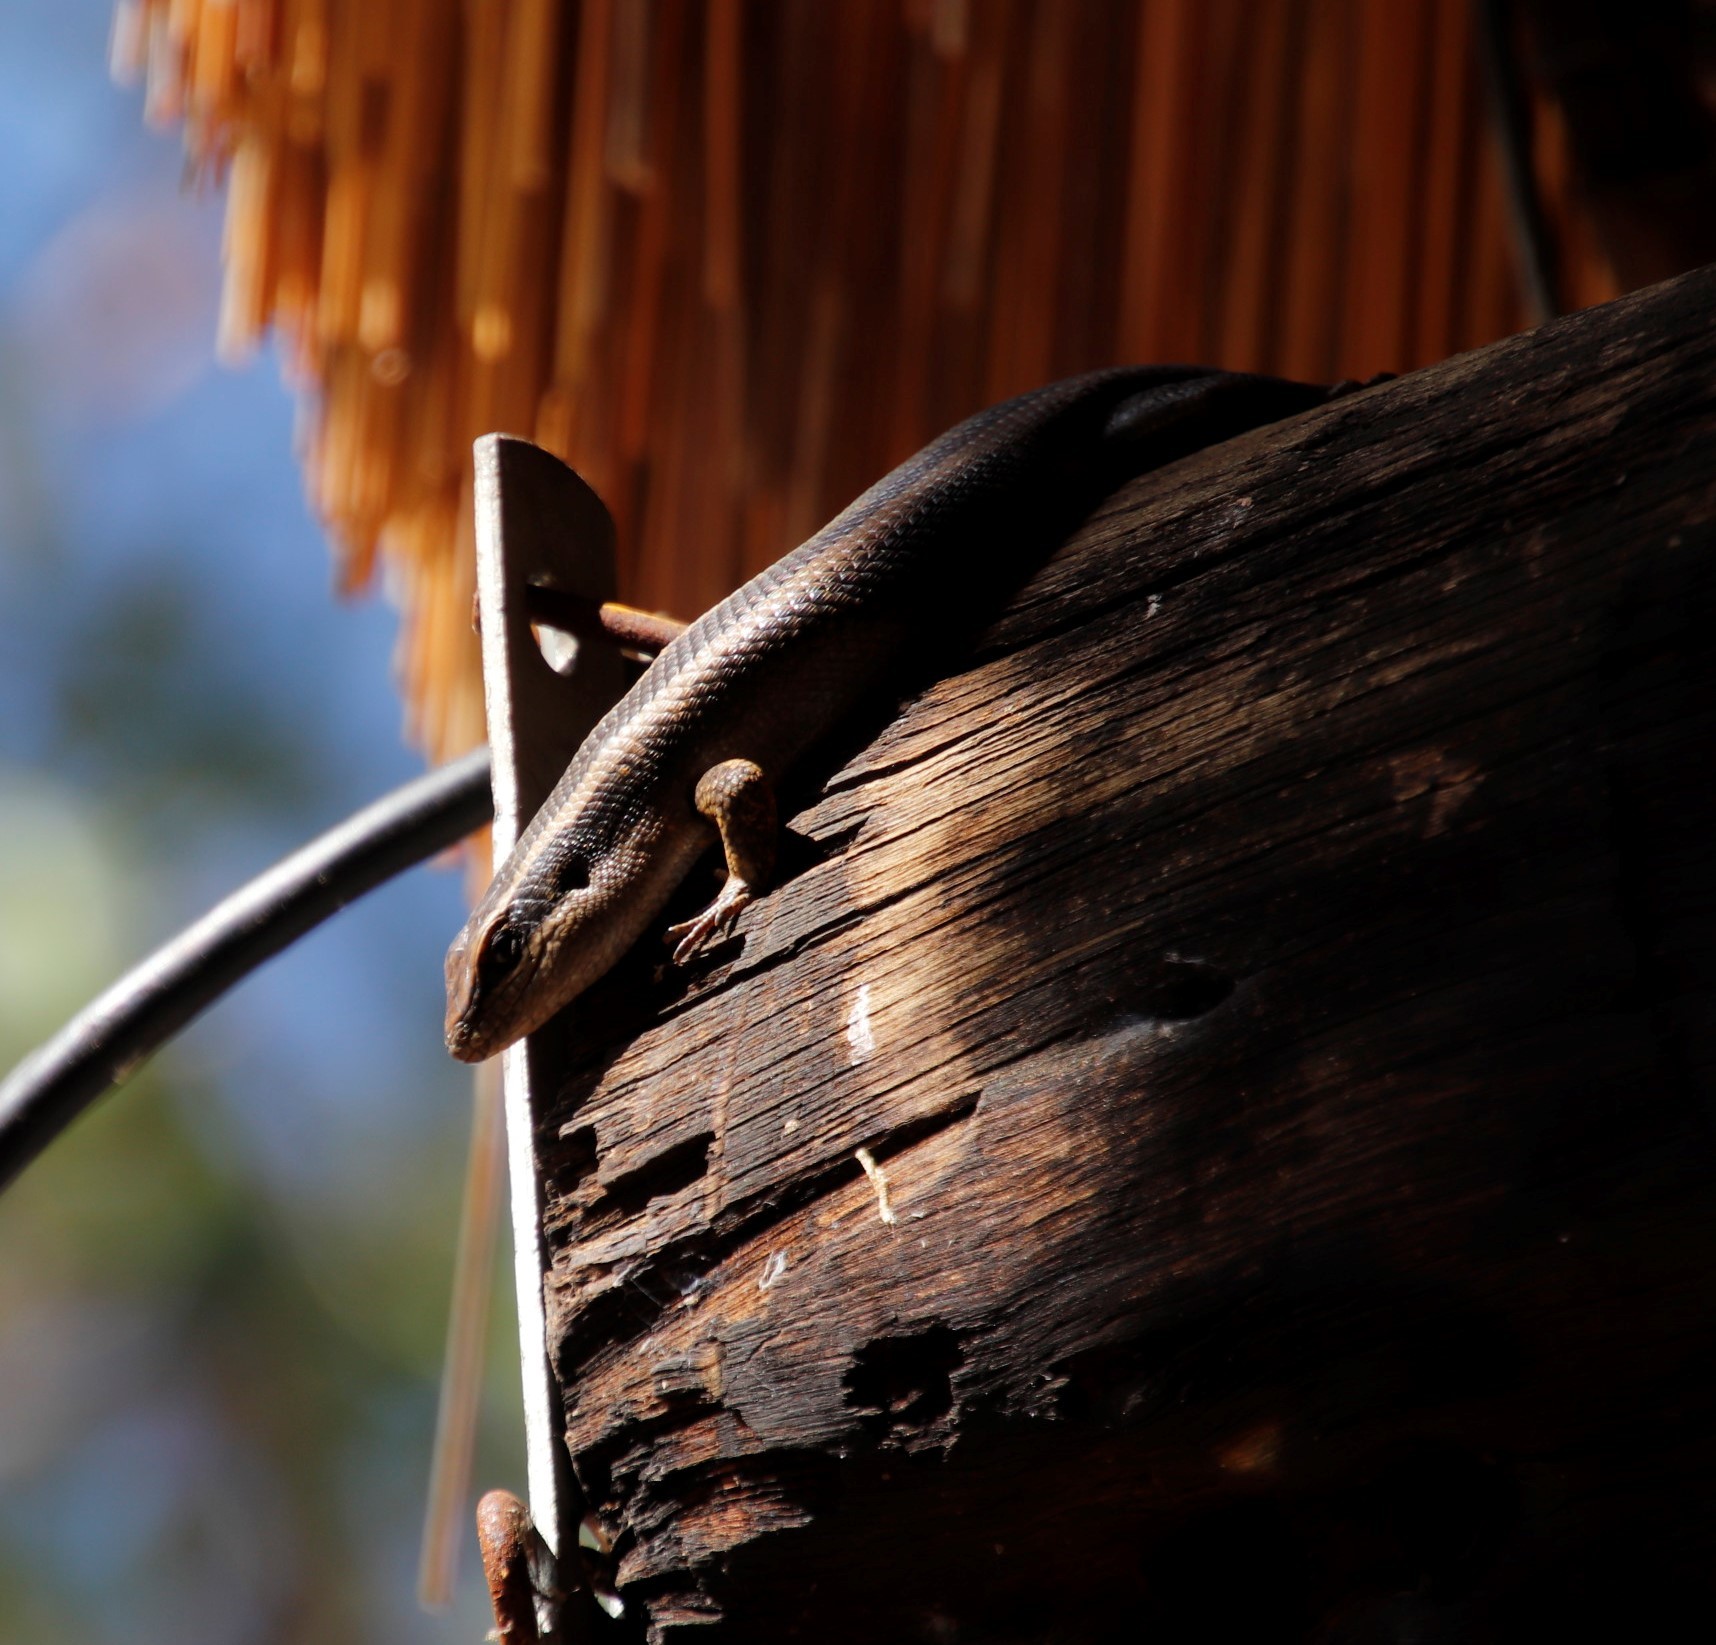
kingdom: Animalia
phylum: Chordata
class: Squamata
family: Scincidae
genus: Trachylepis
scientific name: Trachylepis striata
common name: African striped mabuya
